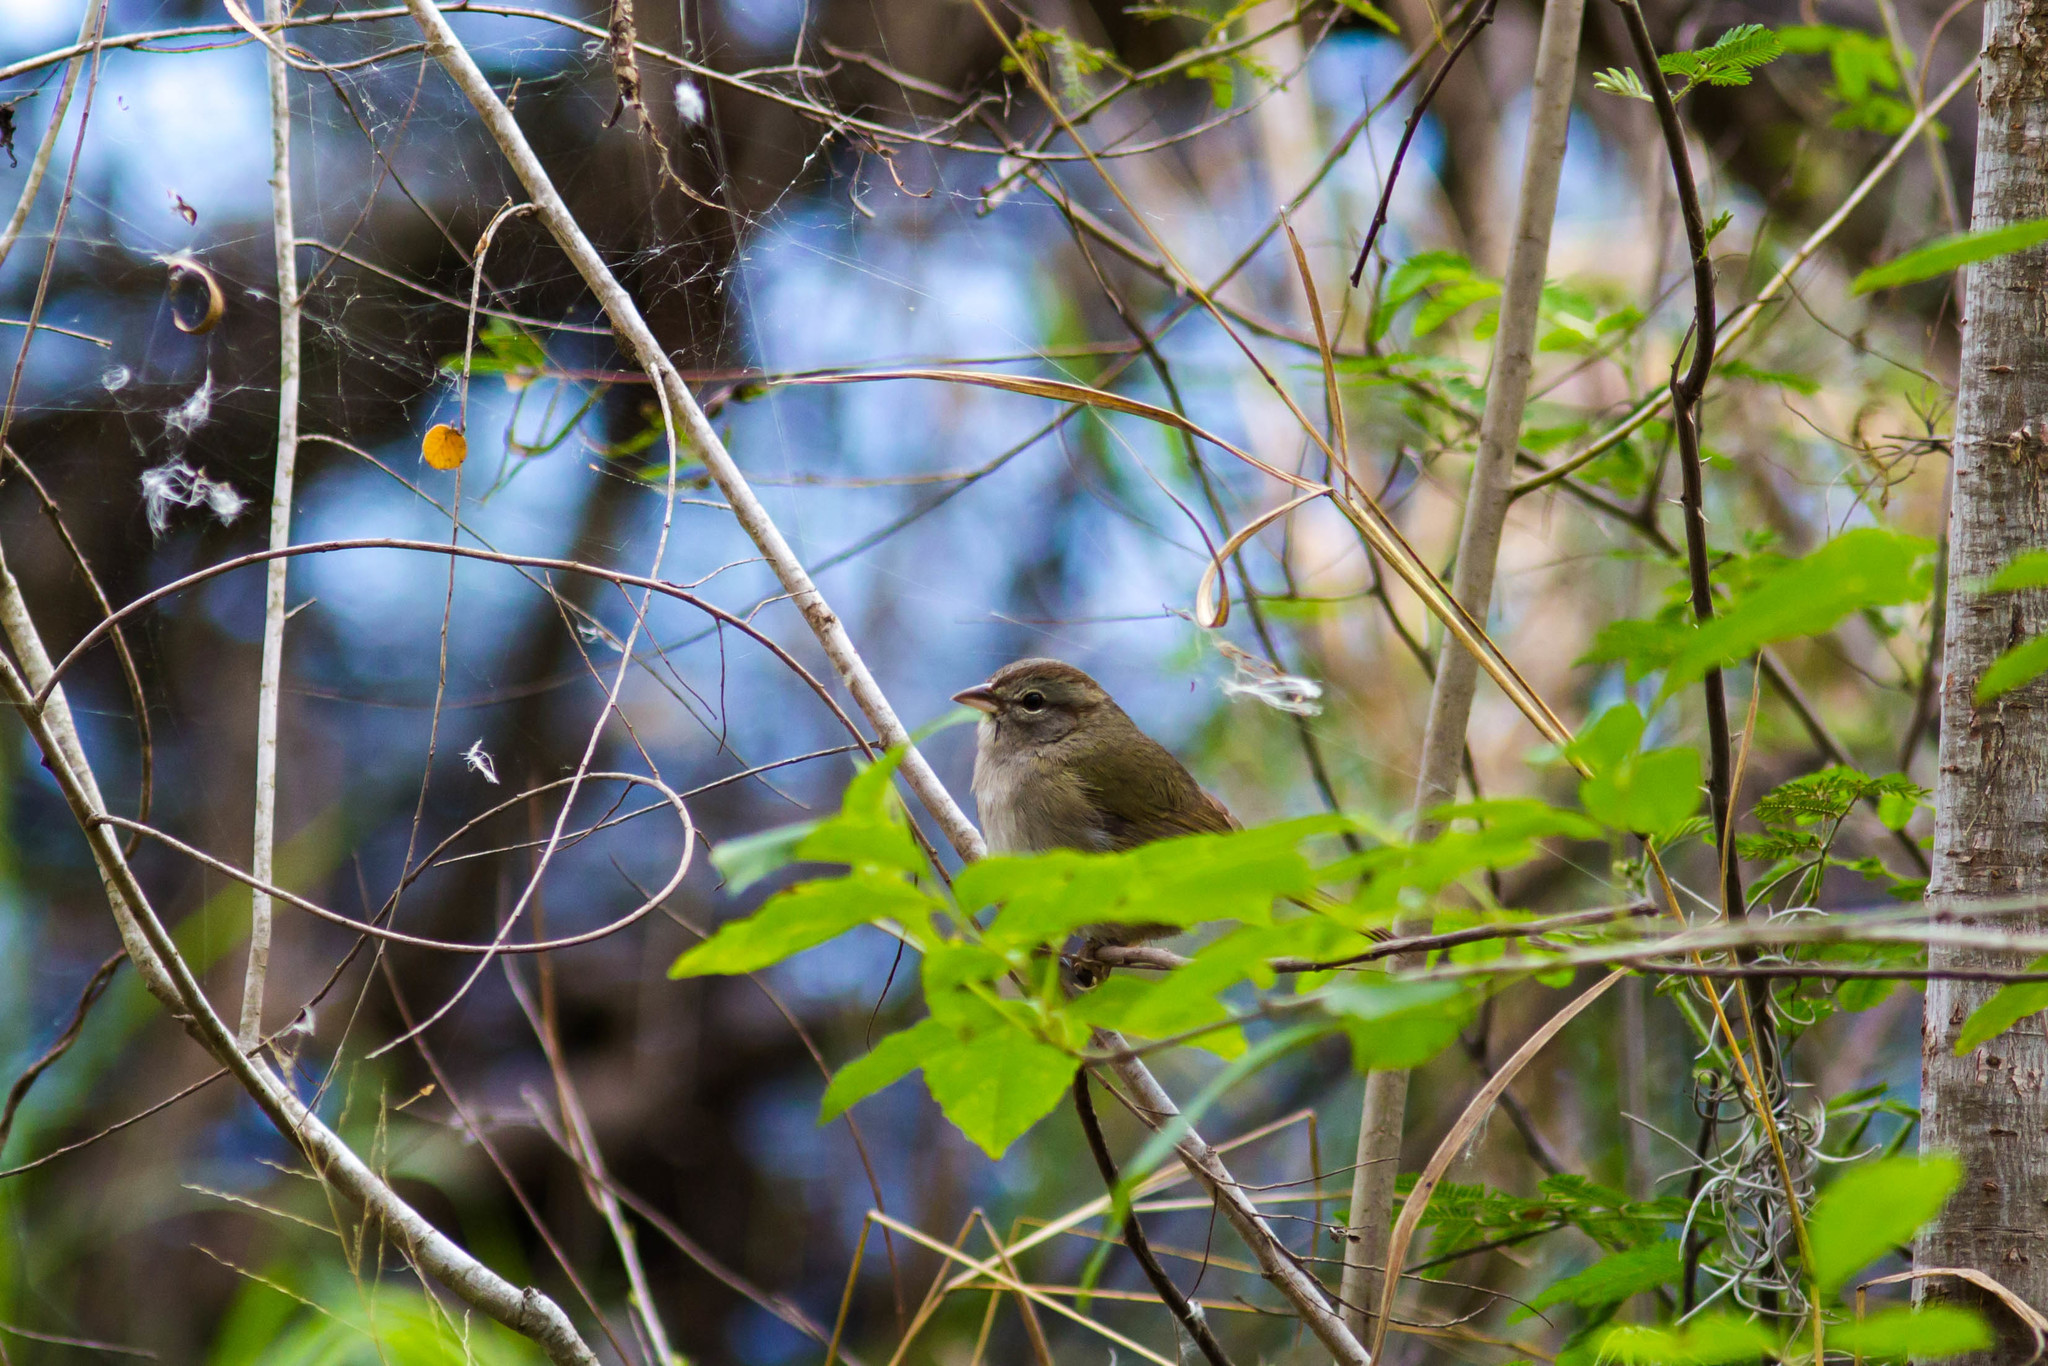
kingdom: Animalia
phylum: Chordata
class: Aves
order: Passeriformes
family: Passerellidae
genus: Arremonops
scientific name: Arremonops rufivirgatus
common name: Olive sparrow
